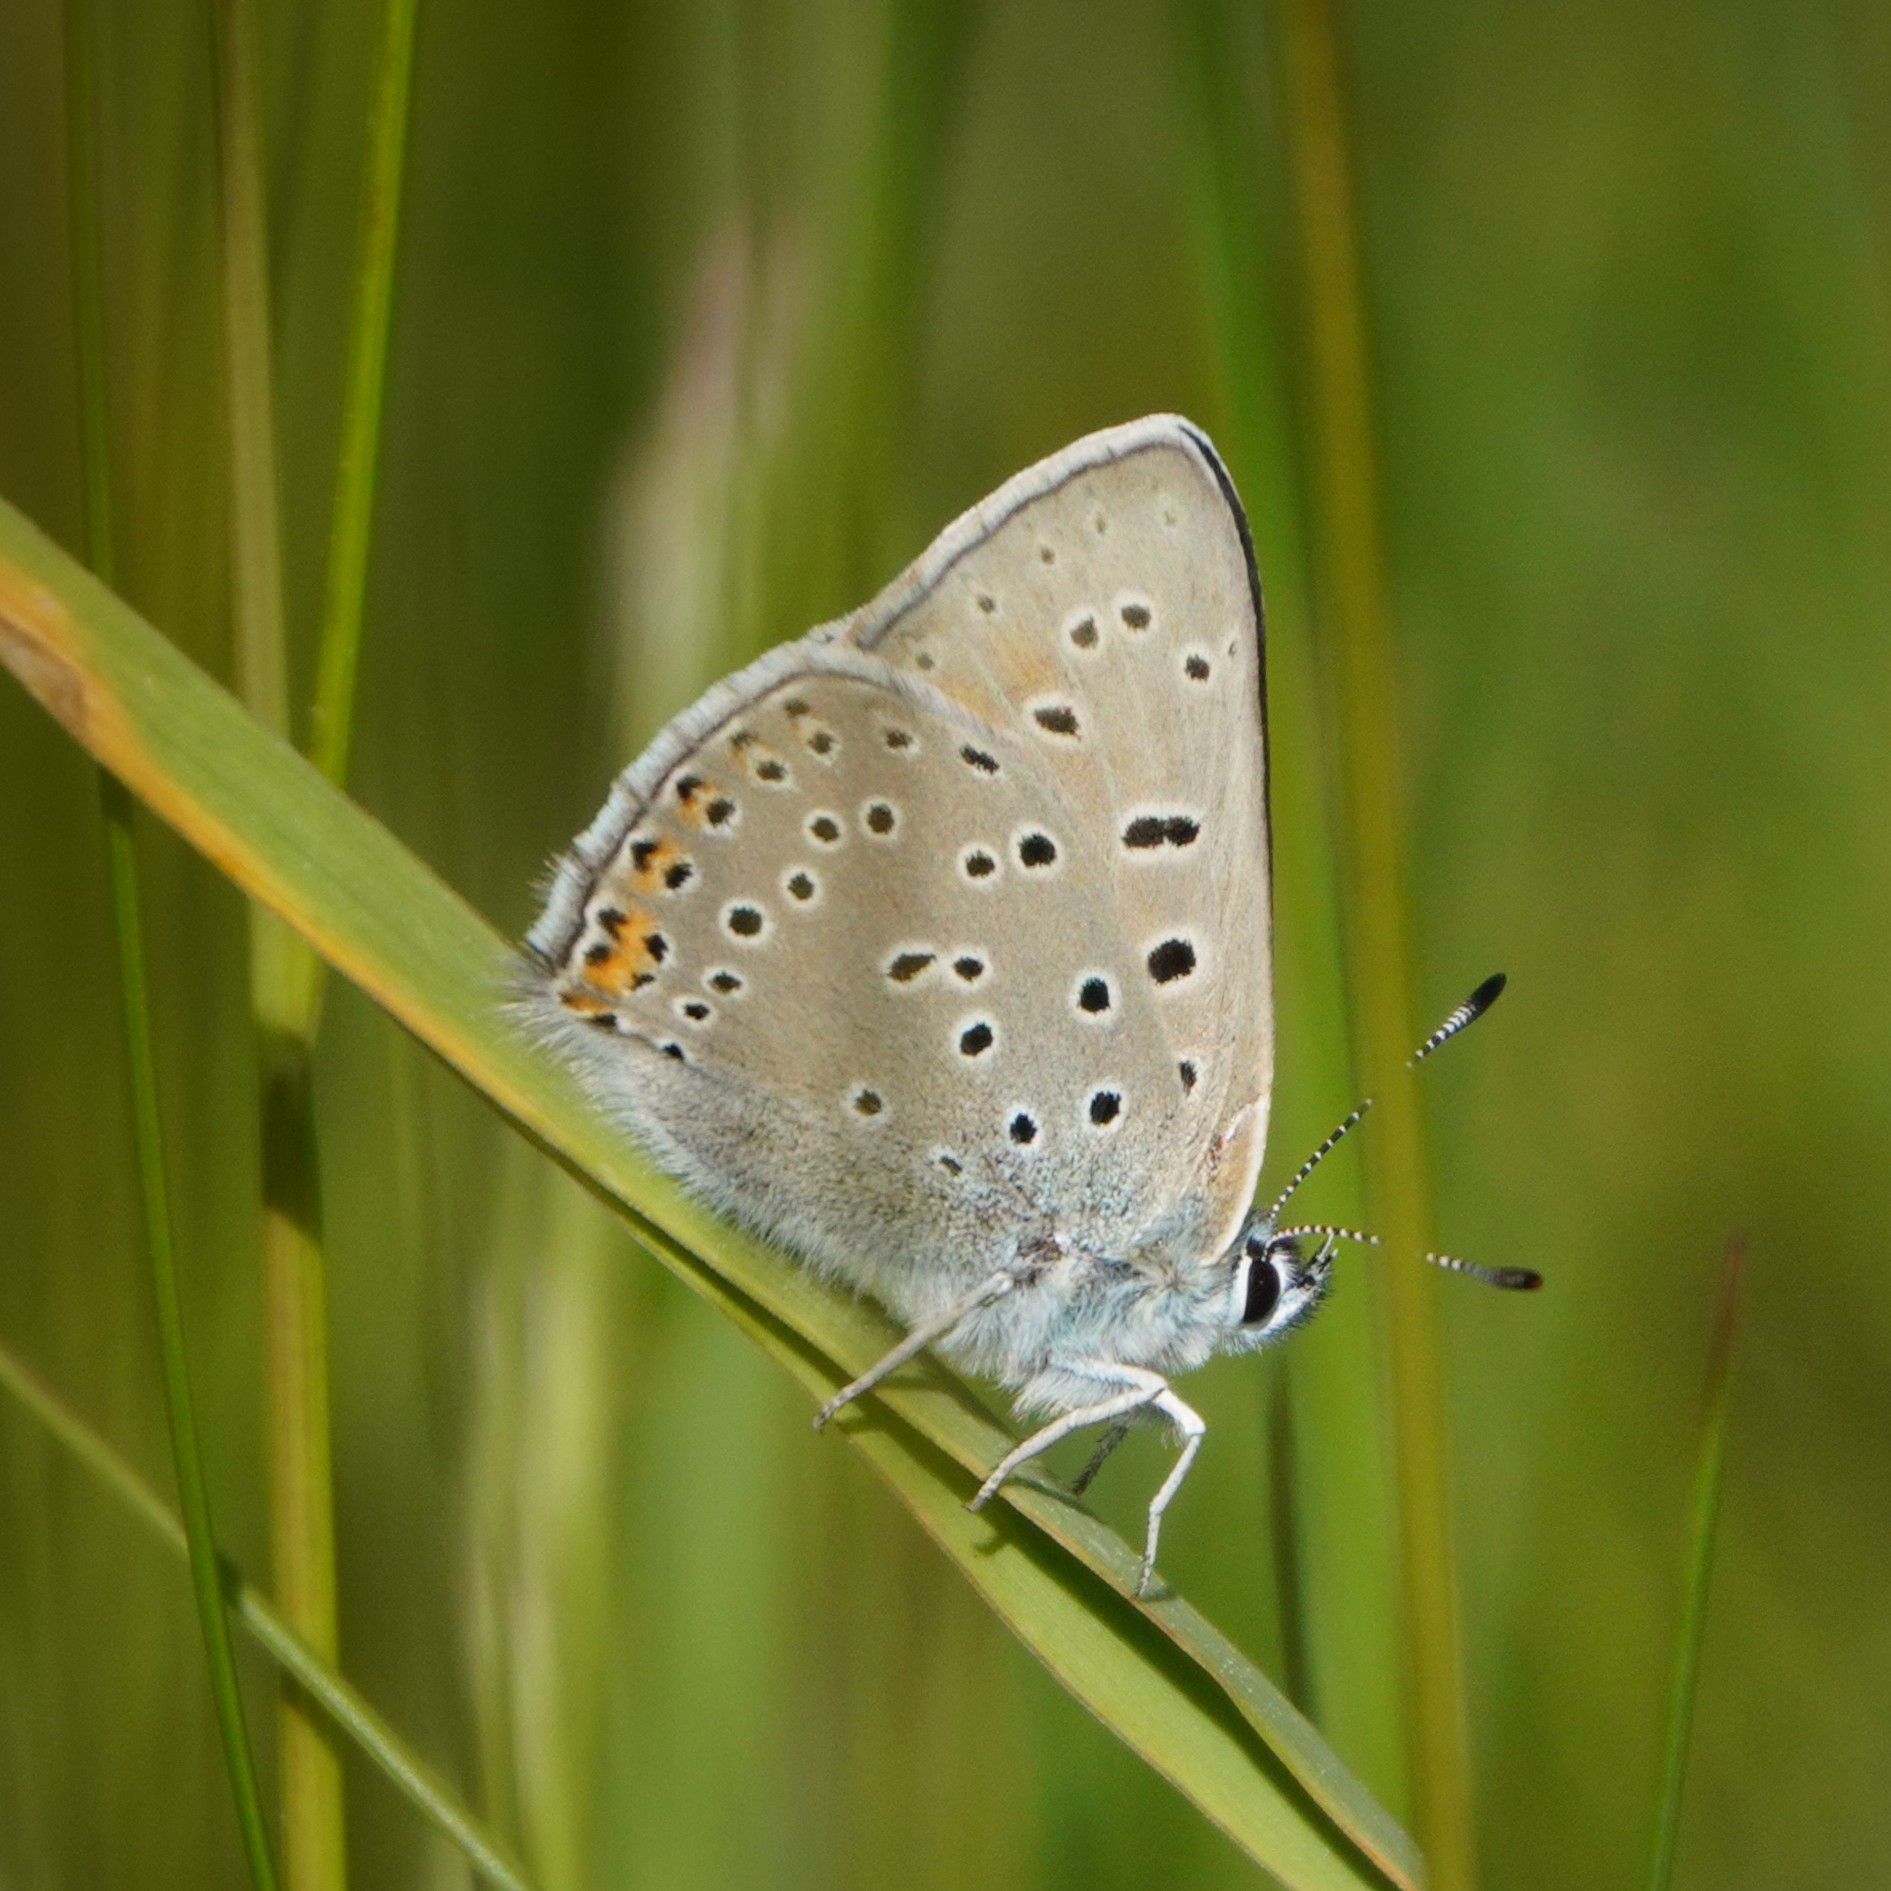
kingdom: Animalia
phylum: Arthropoda
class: Insecta
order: Lepidoptera
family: Lycaenidae
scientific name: Lycaenidae
